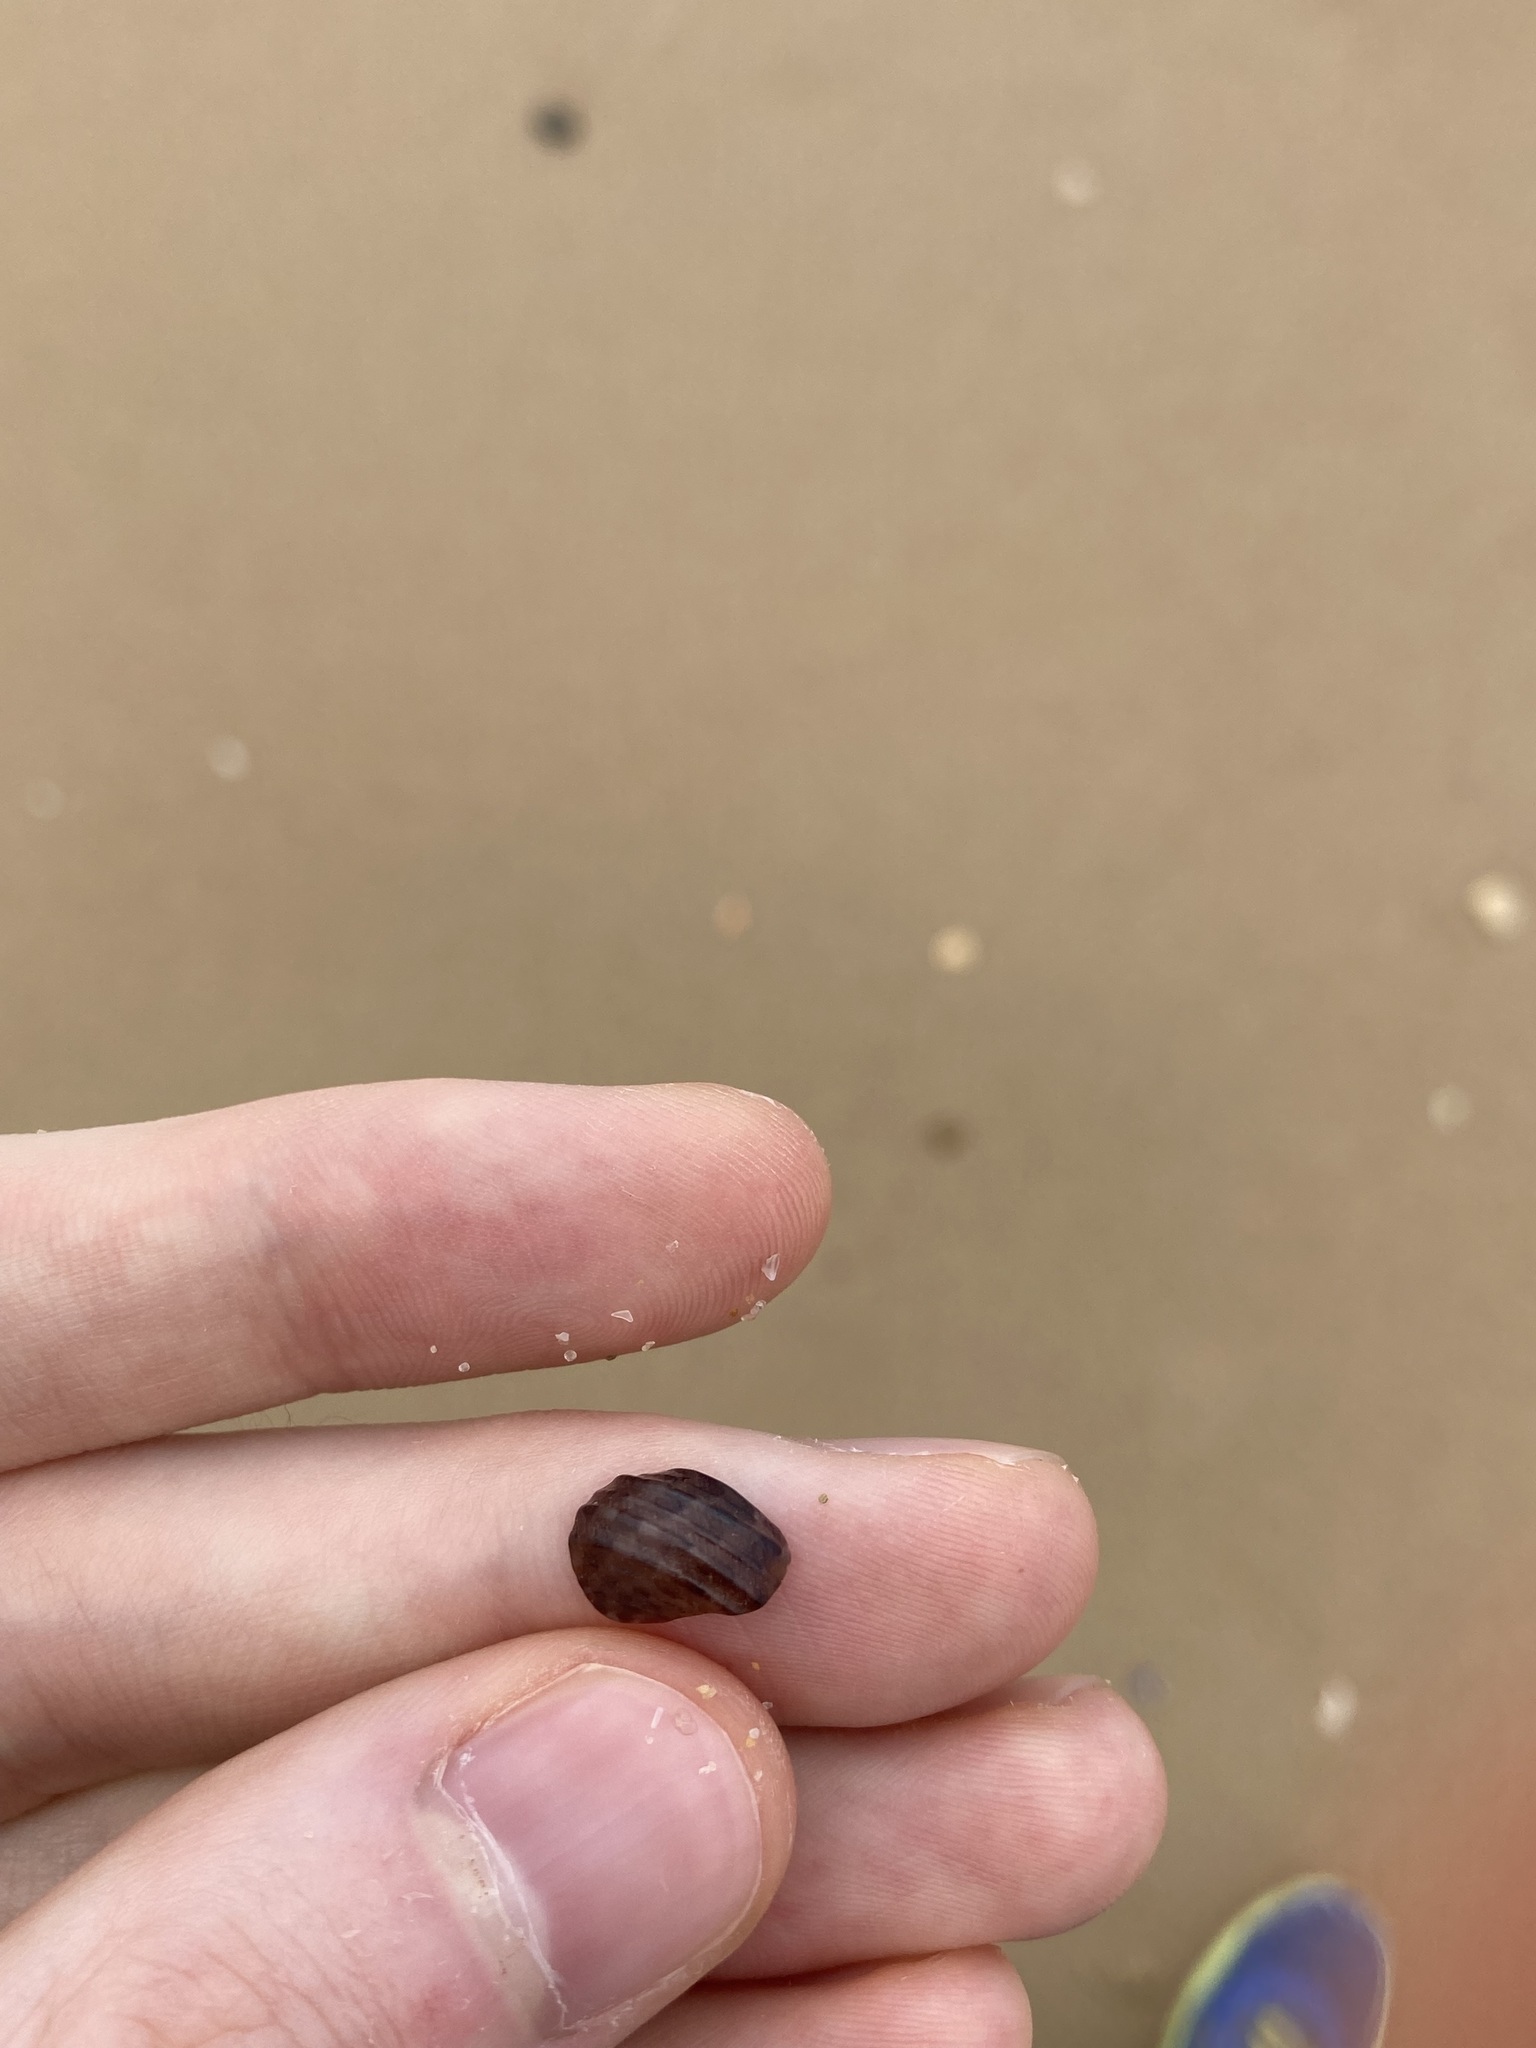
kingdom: Animalia
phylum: Mollusca
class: Gastropoda
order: Trochida
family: Trochidae
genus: Austrocochlea
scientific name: Austrocochlea porcata
